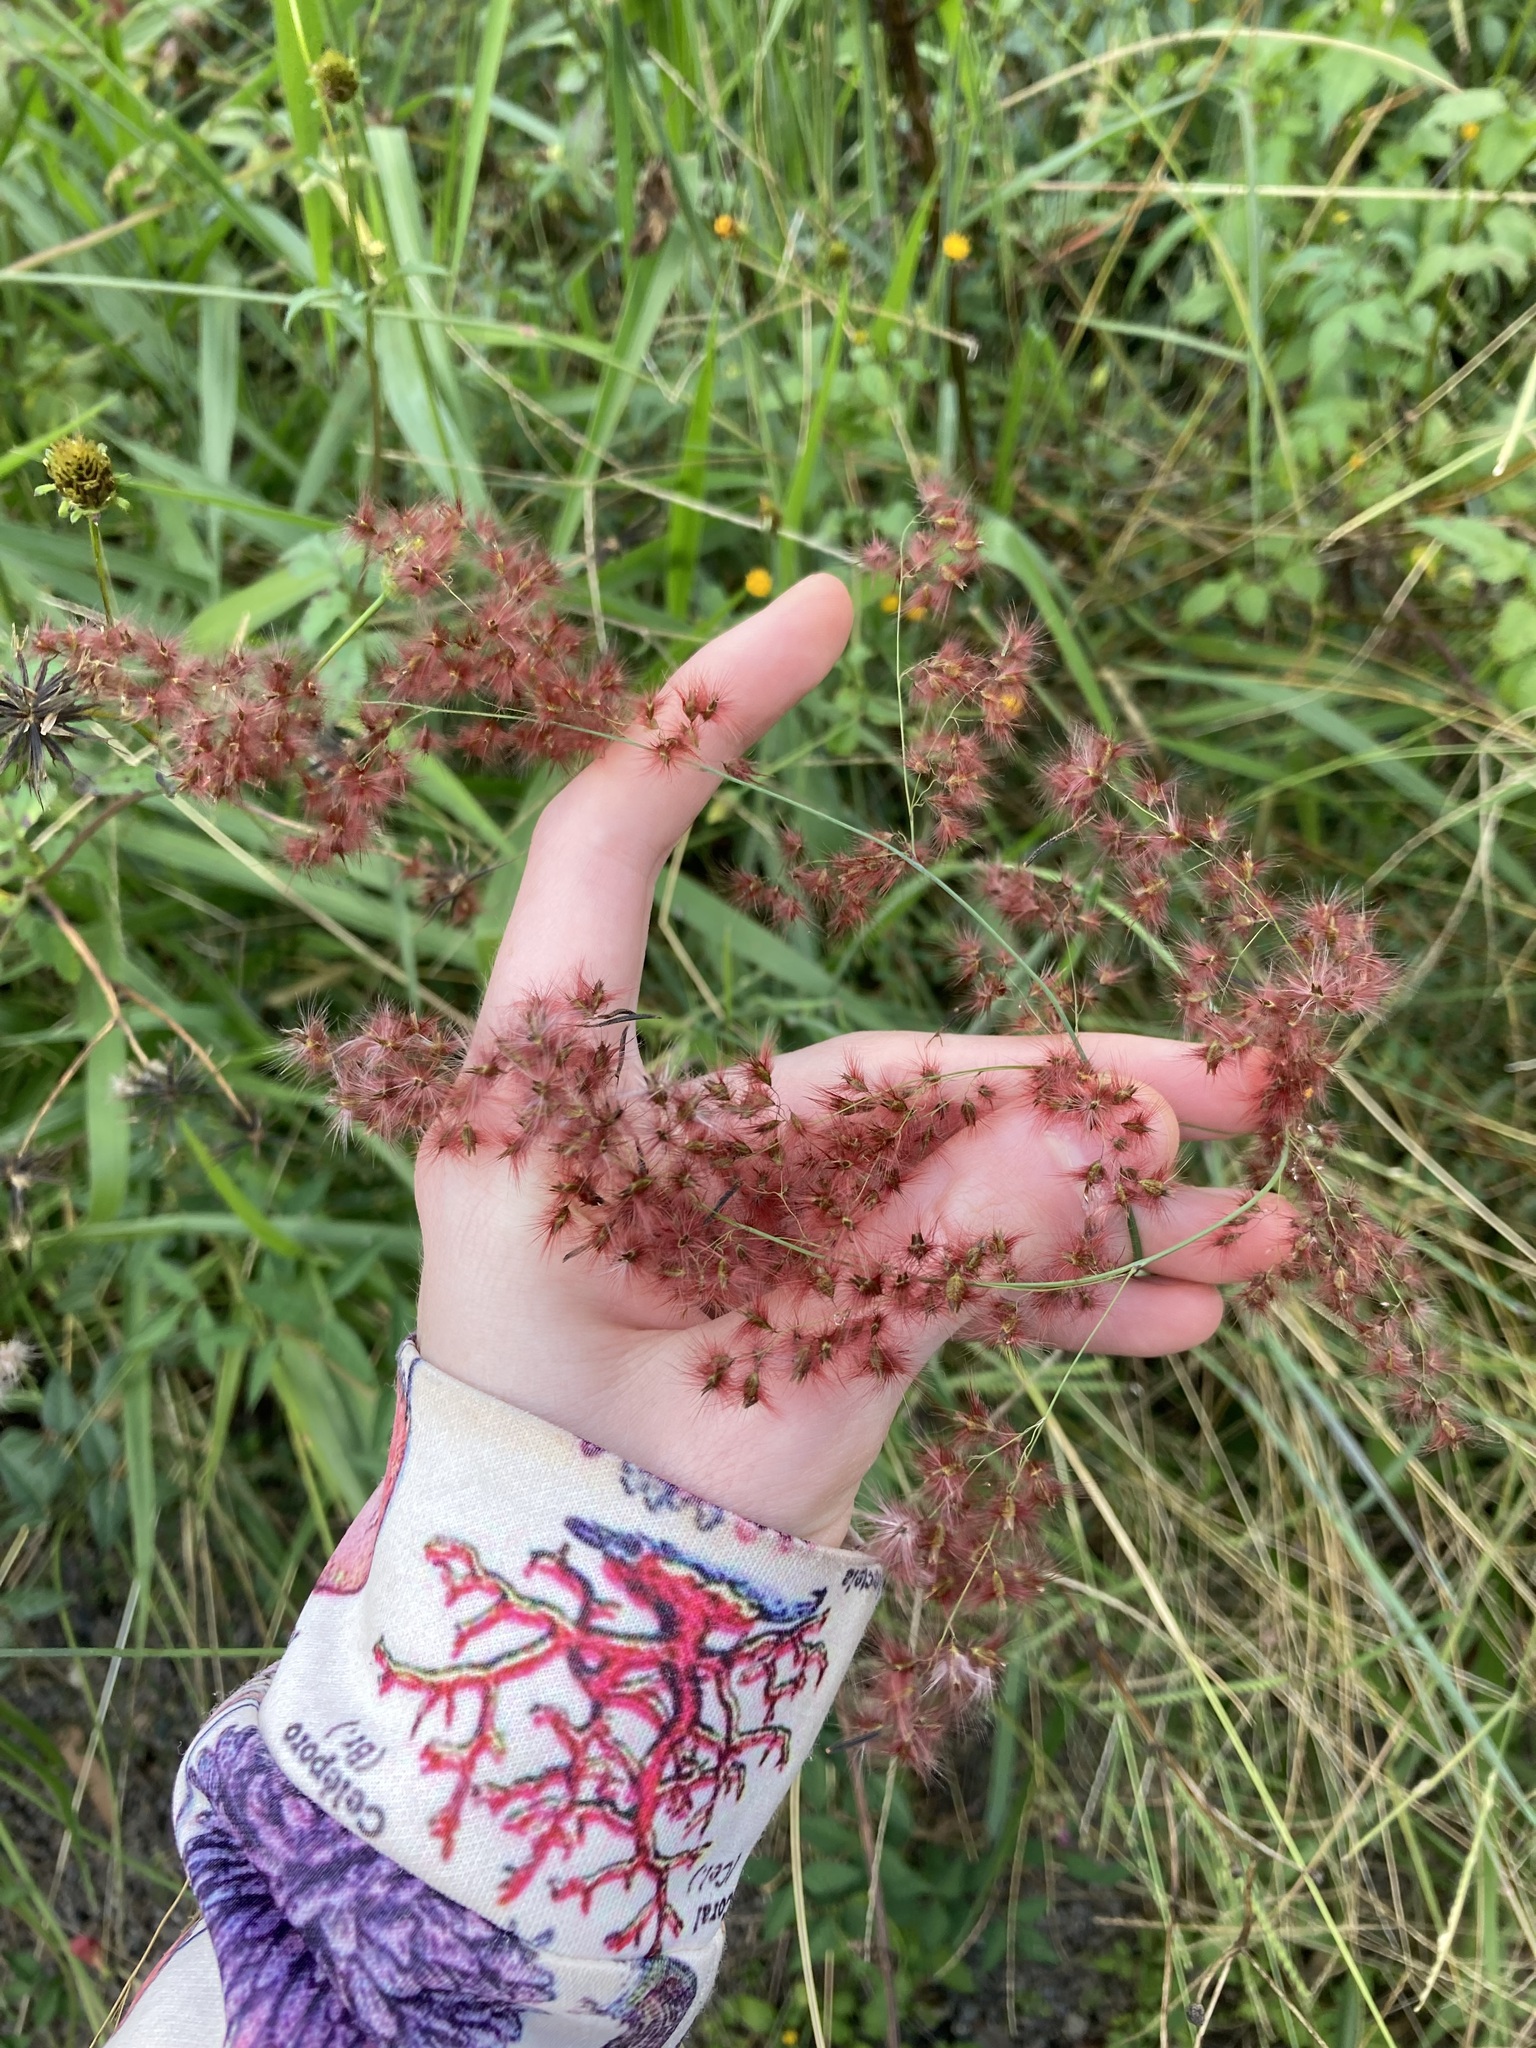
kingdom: Plantae
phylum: Tracheophyta
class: Liliopsida
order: Poales
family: Poaceae
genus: Melinis
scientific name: Melinis repens
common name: Rose natal grass
